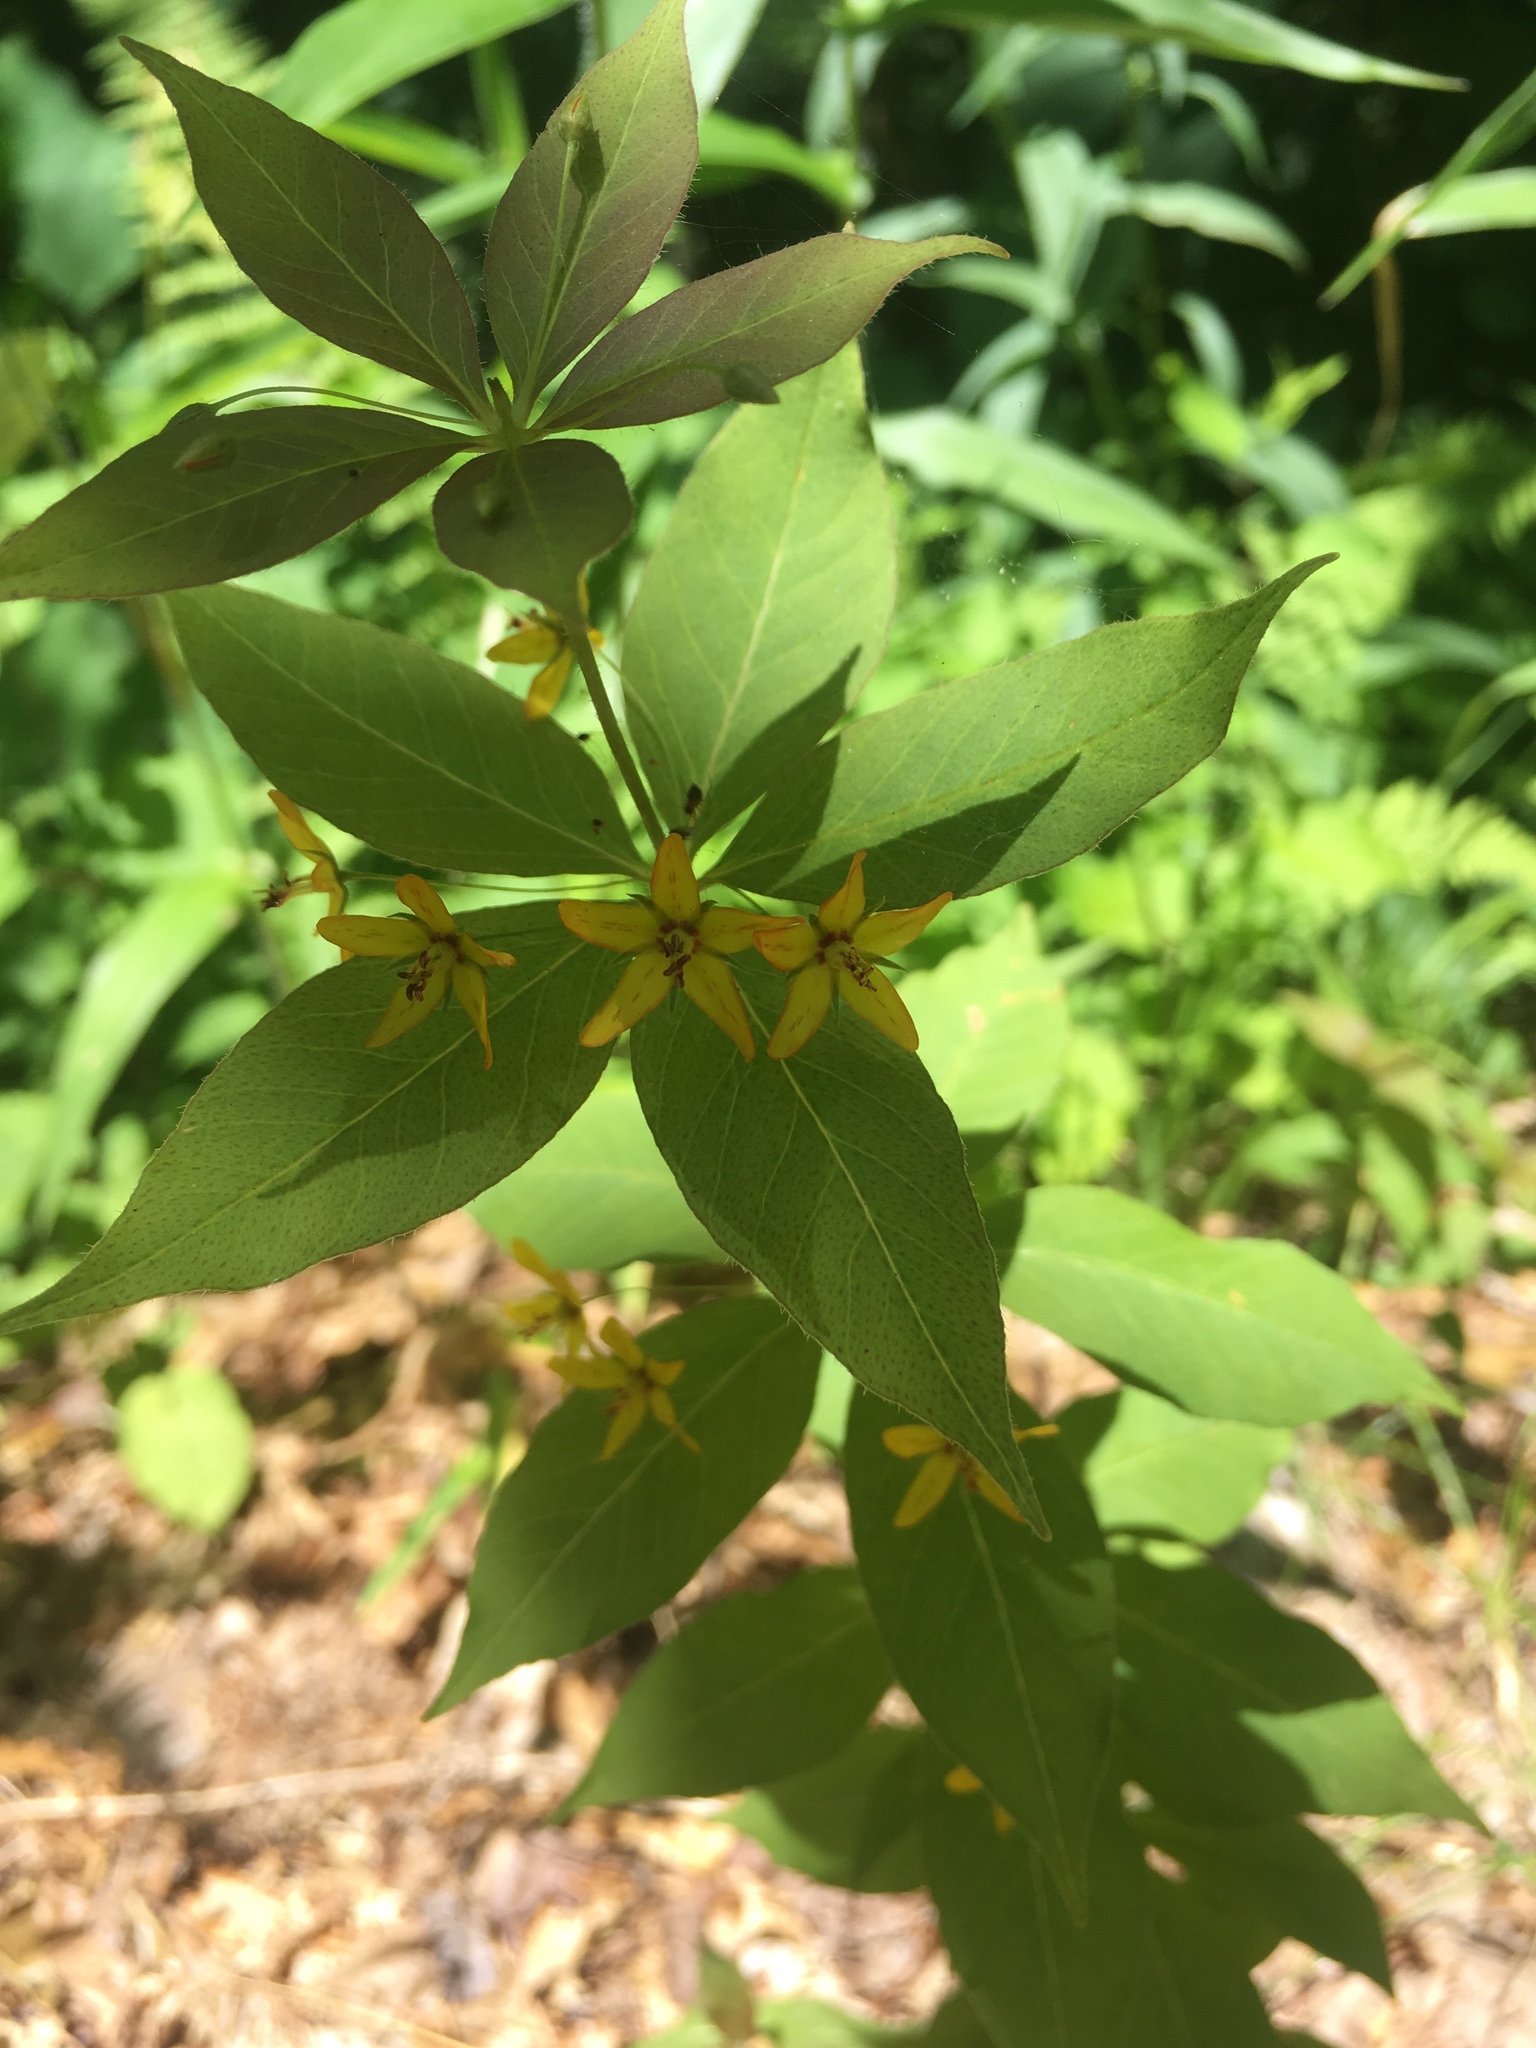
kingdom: Plantae
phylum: Tracheophyta
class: Magnoliopsida
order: Ericales
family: Primulaceae
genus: Lysimachia
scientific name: Lysimachia quadrifolia
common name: Whorled loosestrife
